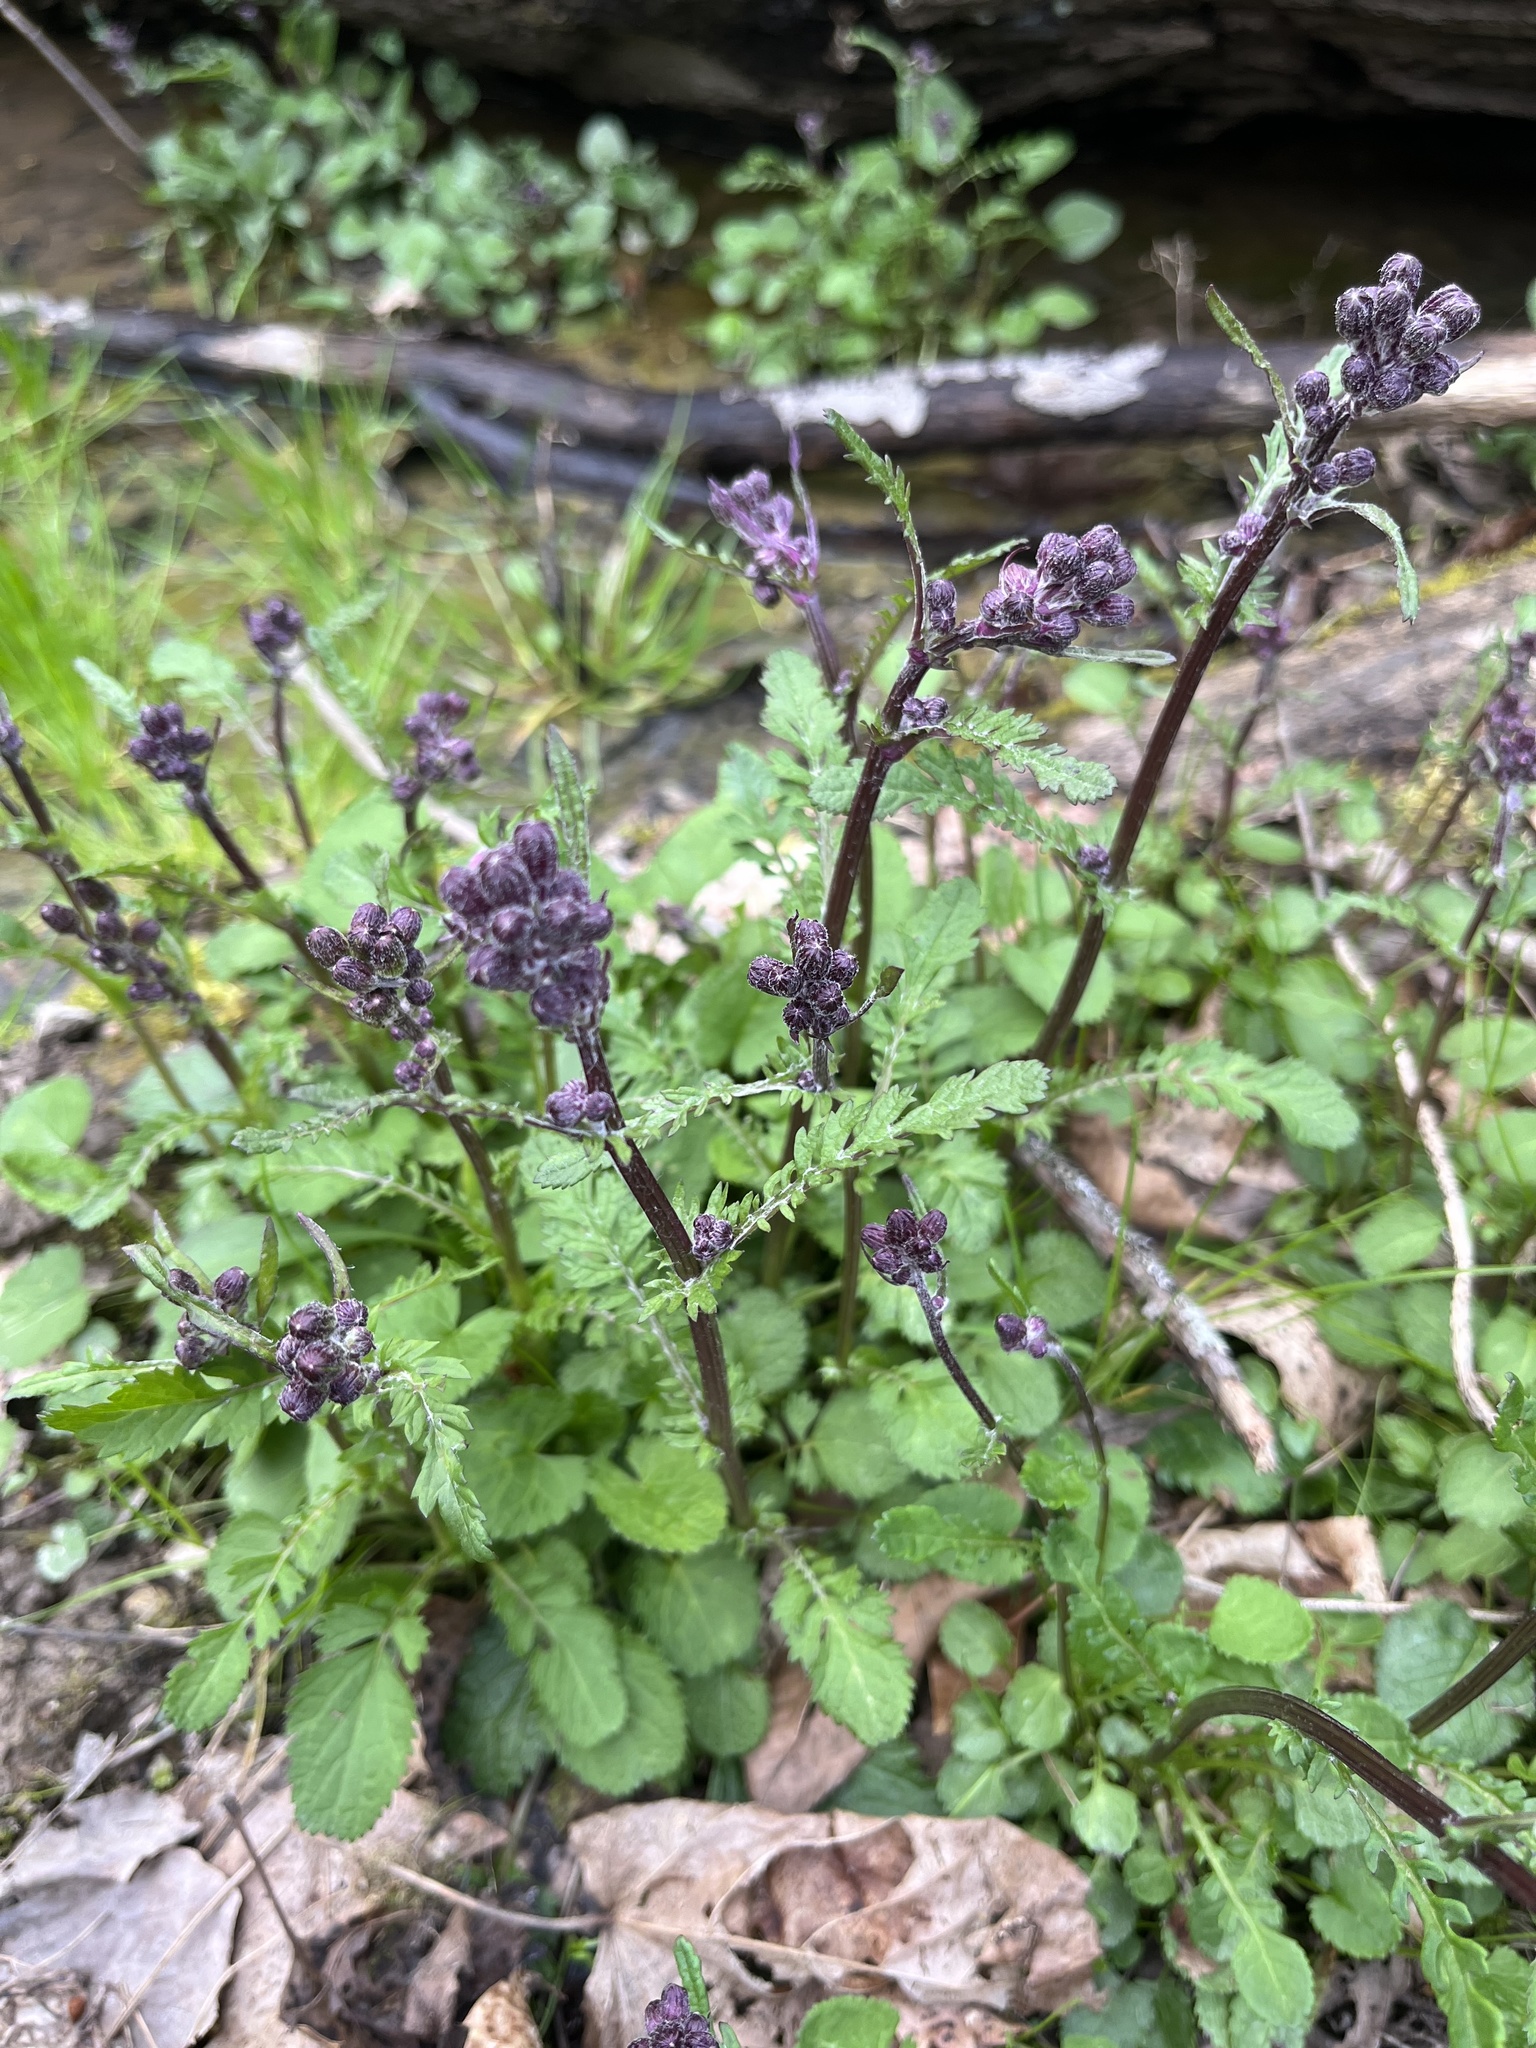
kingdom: Plantae
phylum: Tracheophyta
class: Magnoliopsida
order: Asterales
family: Asteraceae
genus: Packera
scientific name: Packera aurea
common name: Golden groundsel
